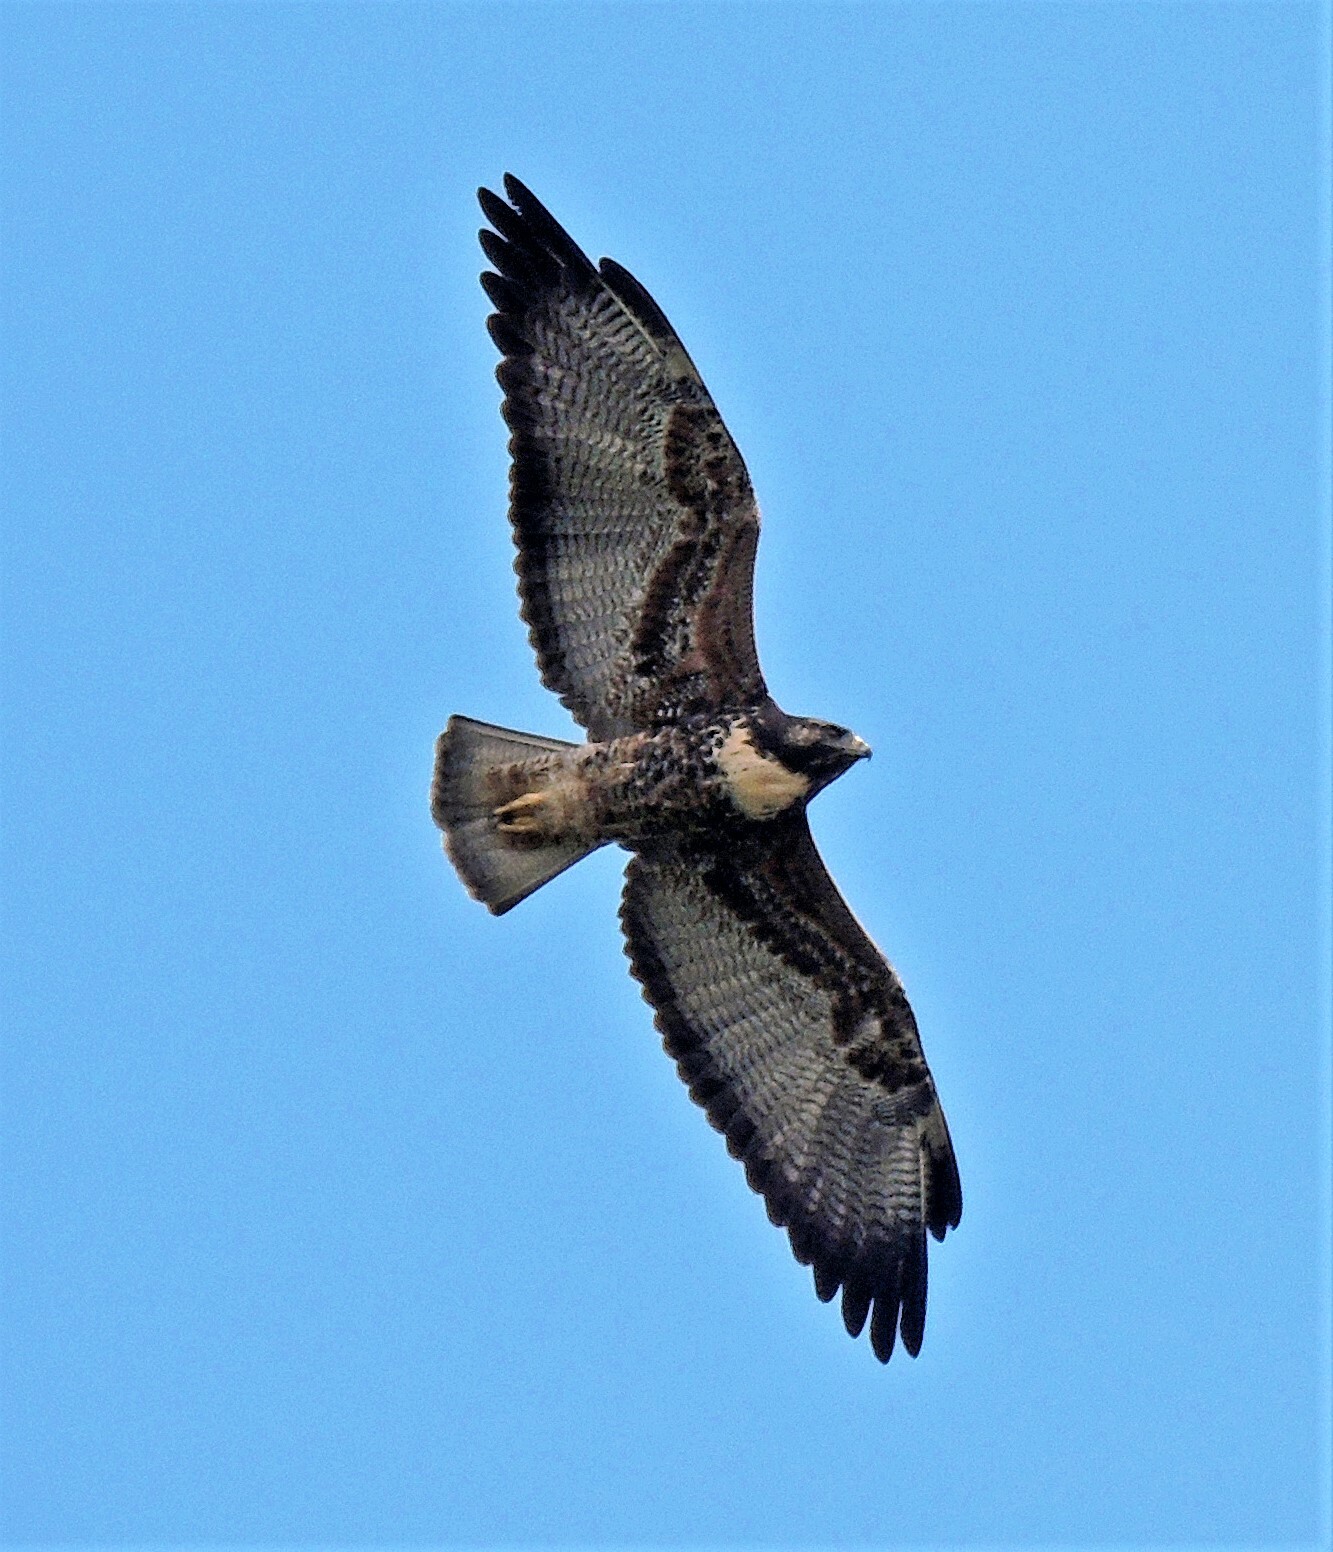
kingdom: Animalia
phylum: Chordata
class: Aves
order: Accipitriformes
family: Accipitridae
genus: Buteo
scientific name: Buteo albicaudatus
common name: White-tailed hawk
